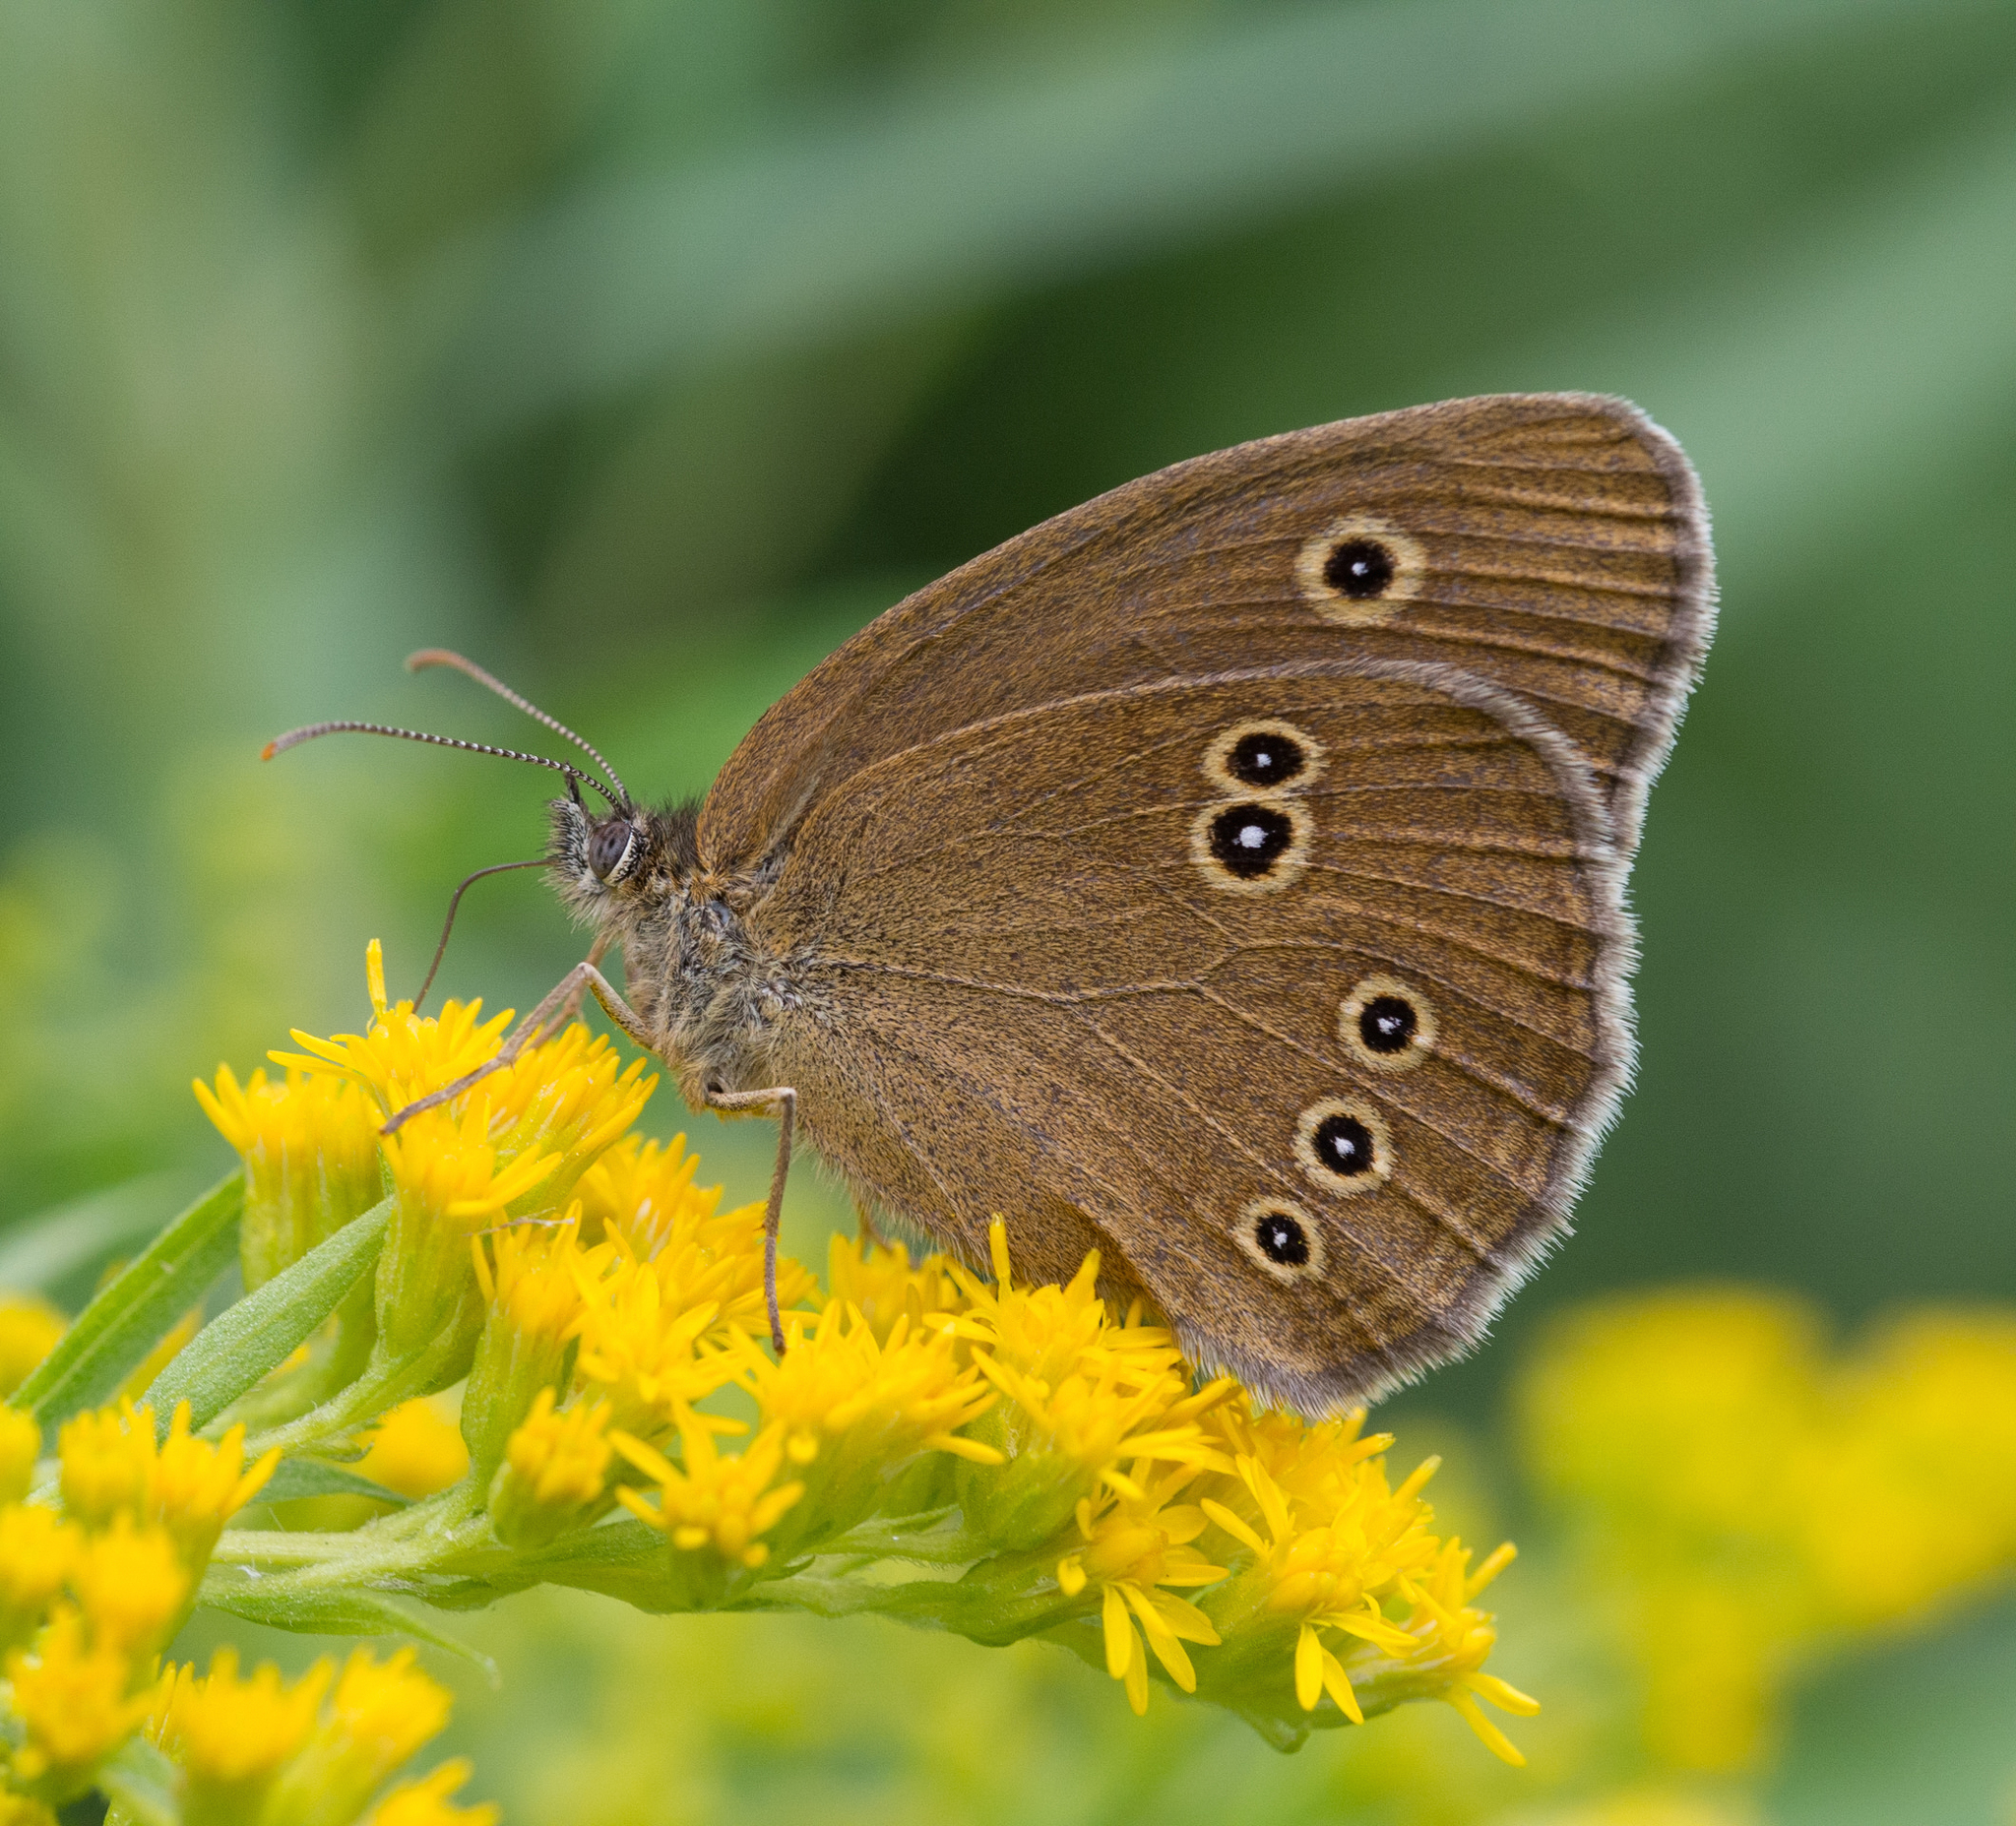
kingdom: Animalia
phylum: Arthropoda
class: Insecta
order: Lepidoptera
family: Nymphalidae
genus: Aphantopus
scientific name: Aphantopus hyperantus
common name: Ringlet
